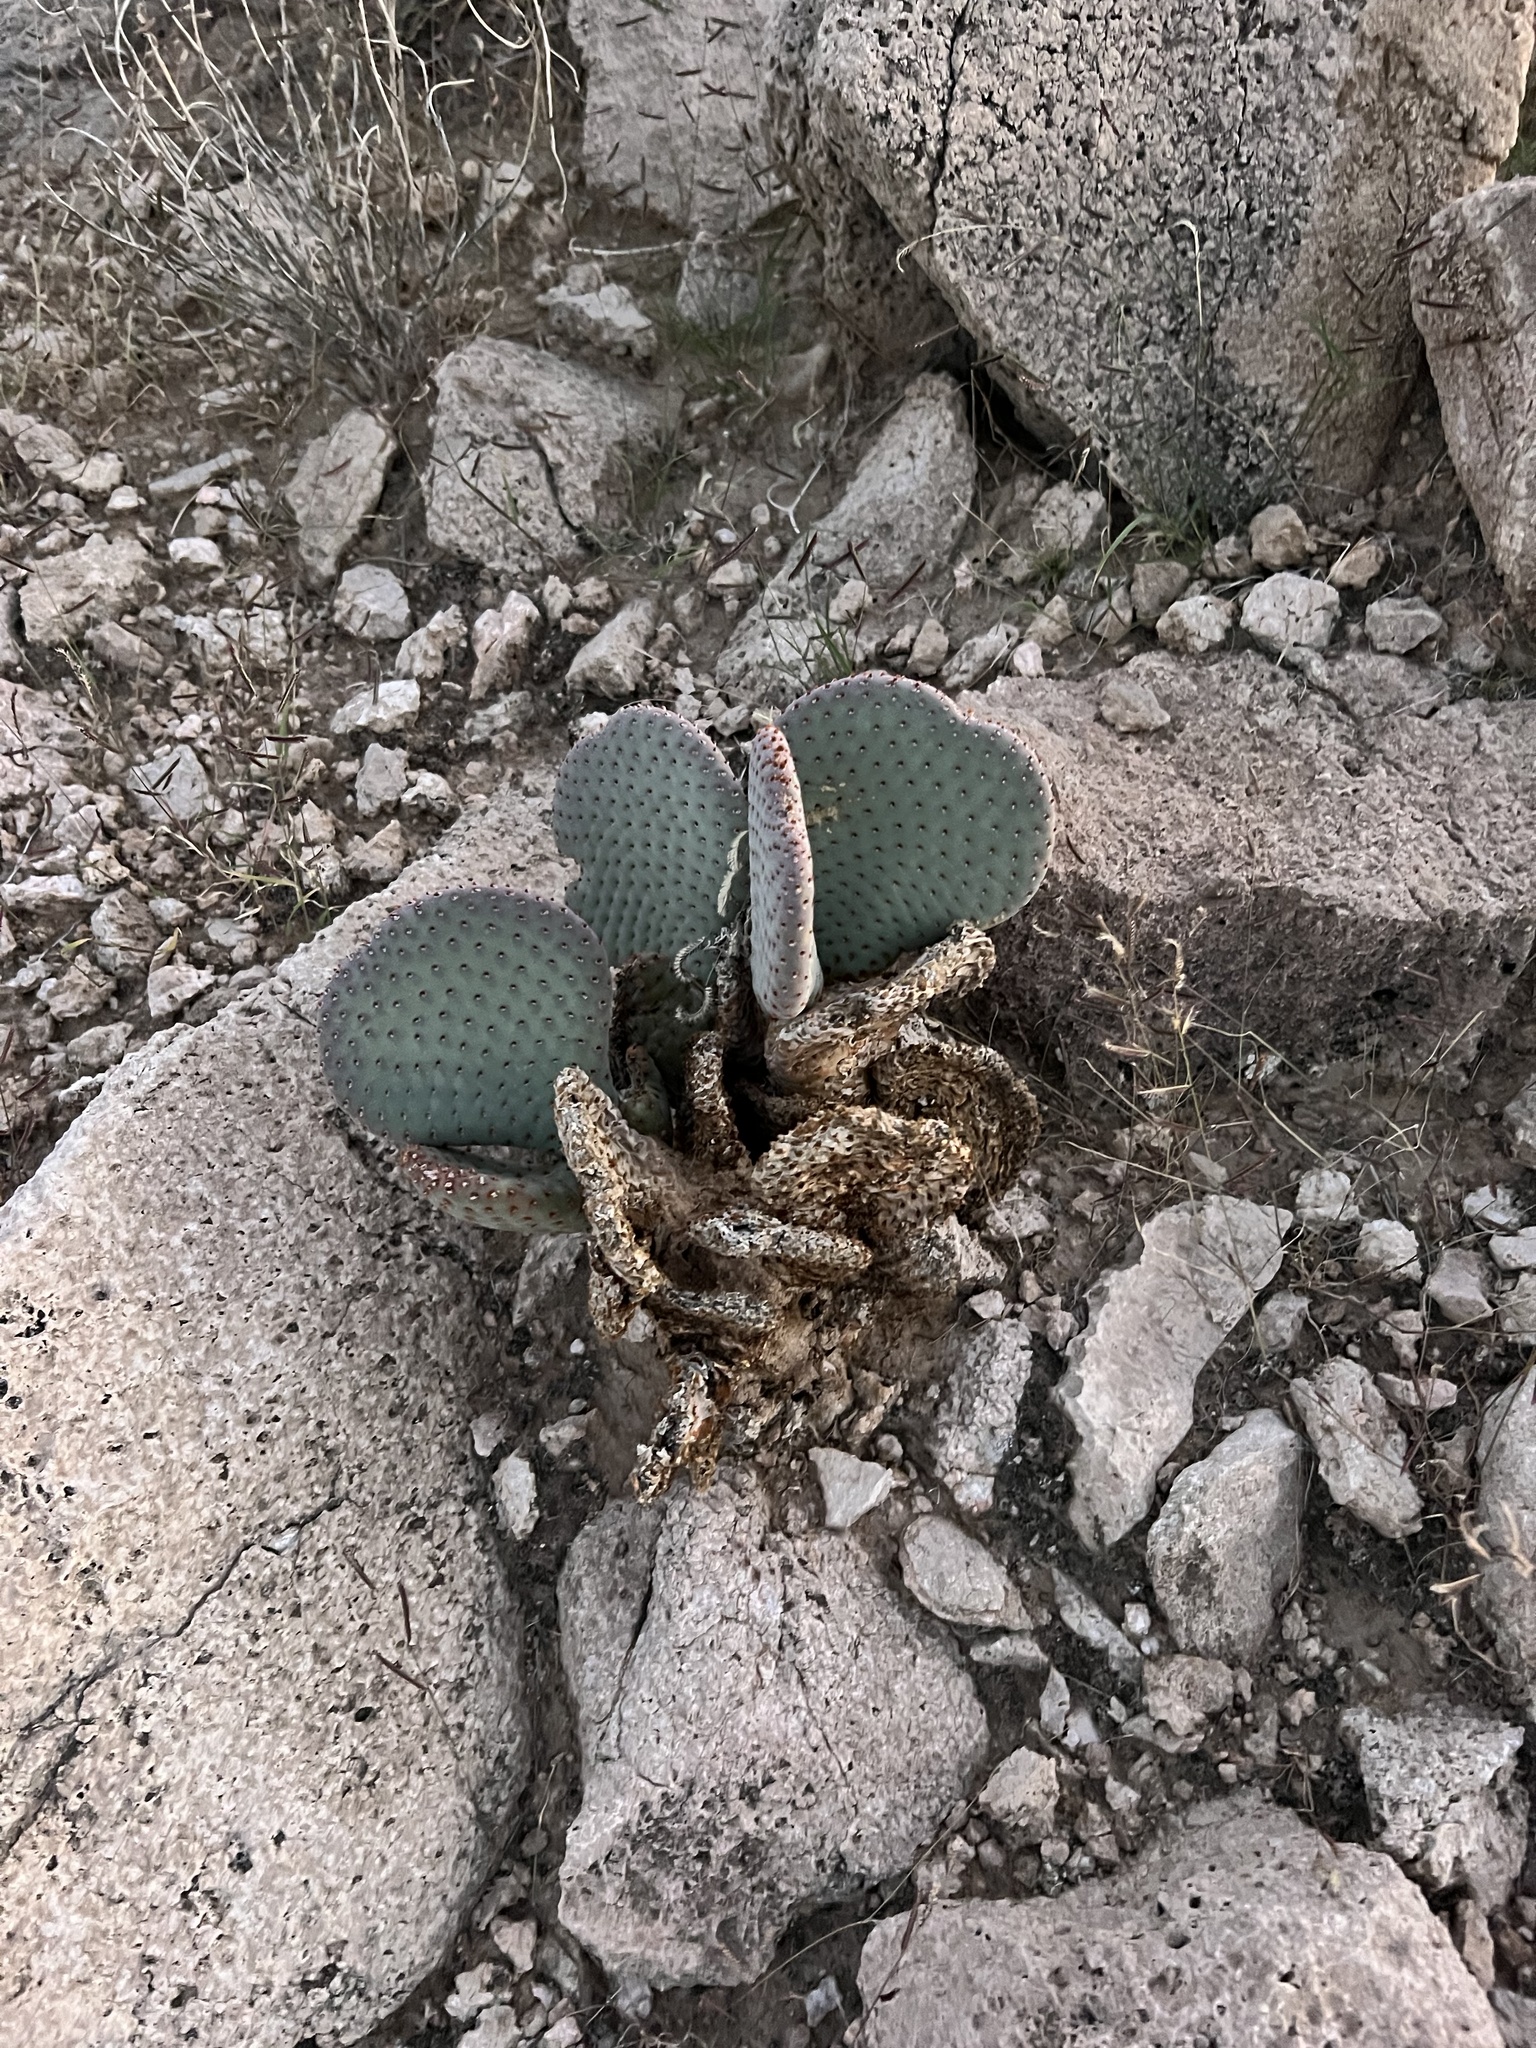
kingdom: Plantae
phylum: Tracheophyta
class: Magnoliopsida
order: Caryophyllales
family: Cactaceae
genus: Opuntia
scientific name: Opuntia basilaris
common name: Beavertail prickly-pear
